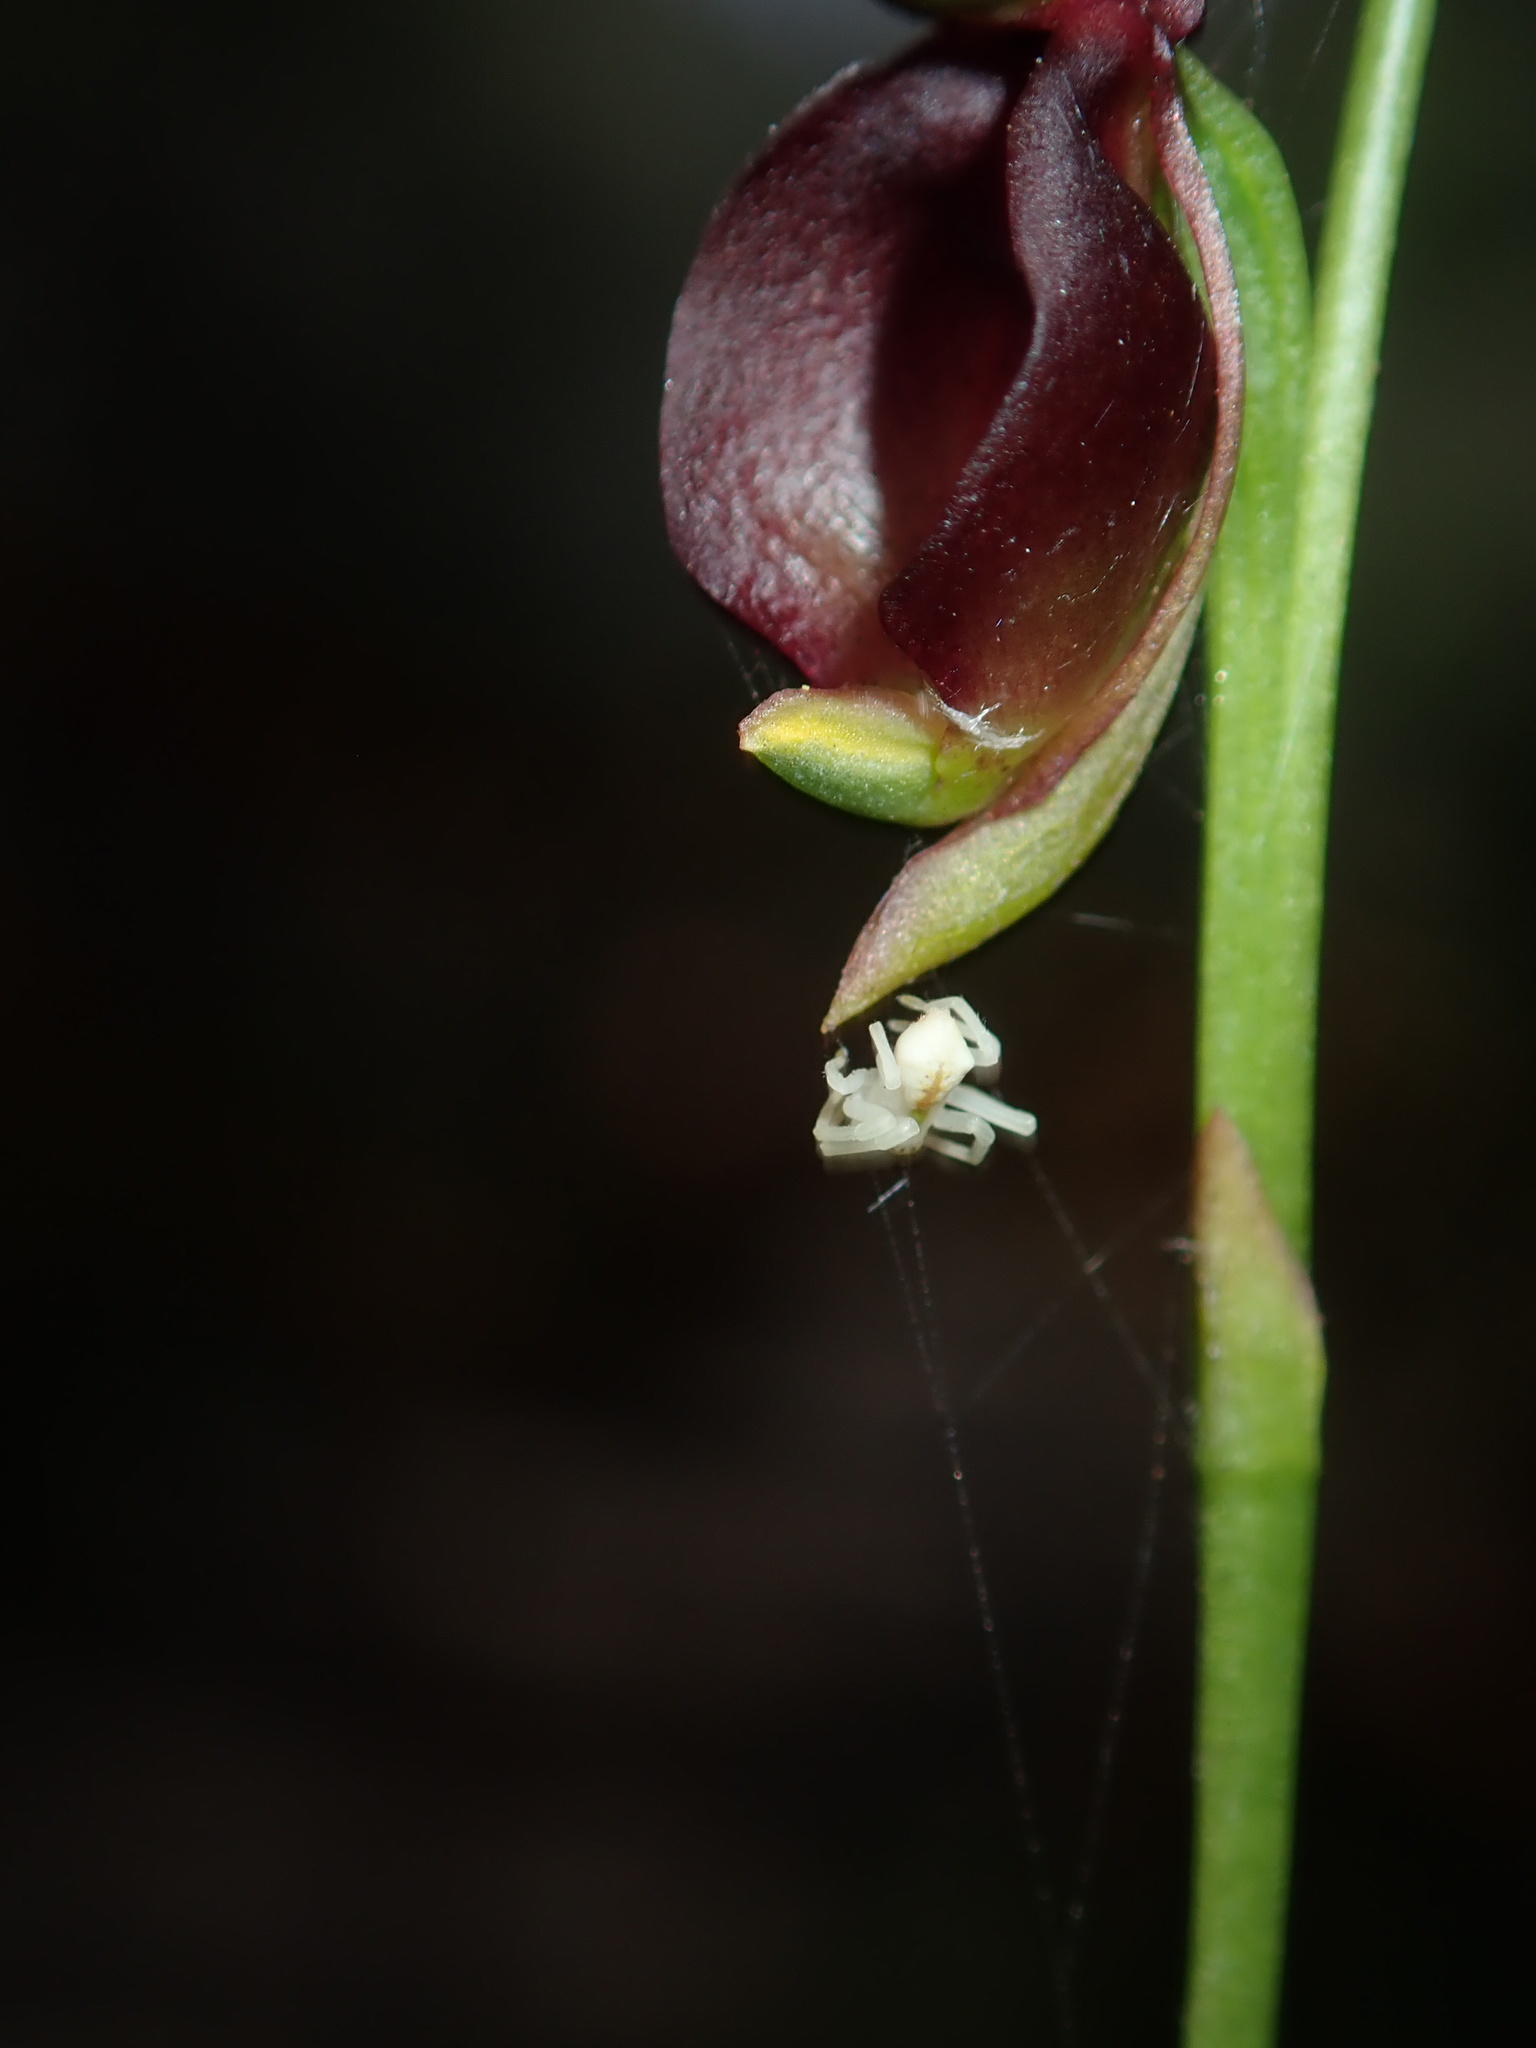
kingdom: Animalia
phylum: Arthropoda
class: Arachnida
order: Araneae
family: Thomisidae
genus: Sidymella
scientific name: Sidymella rubrosignata
